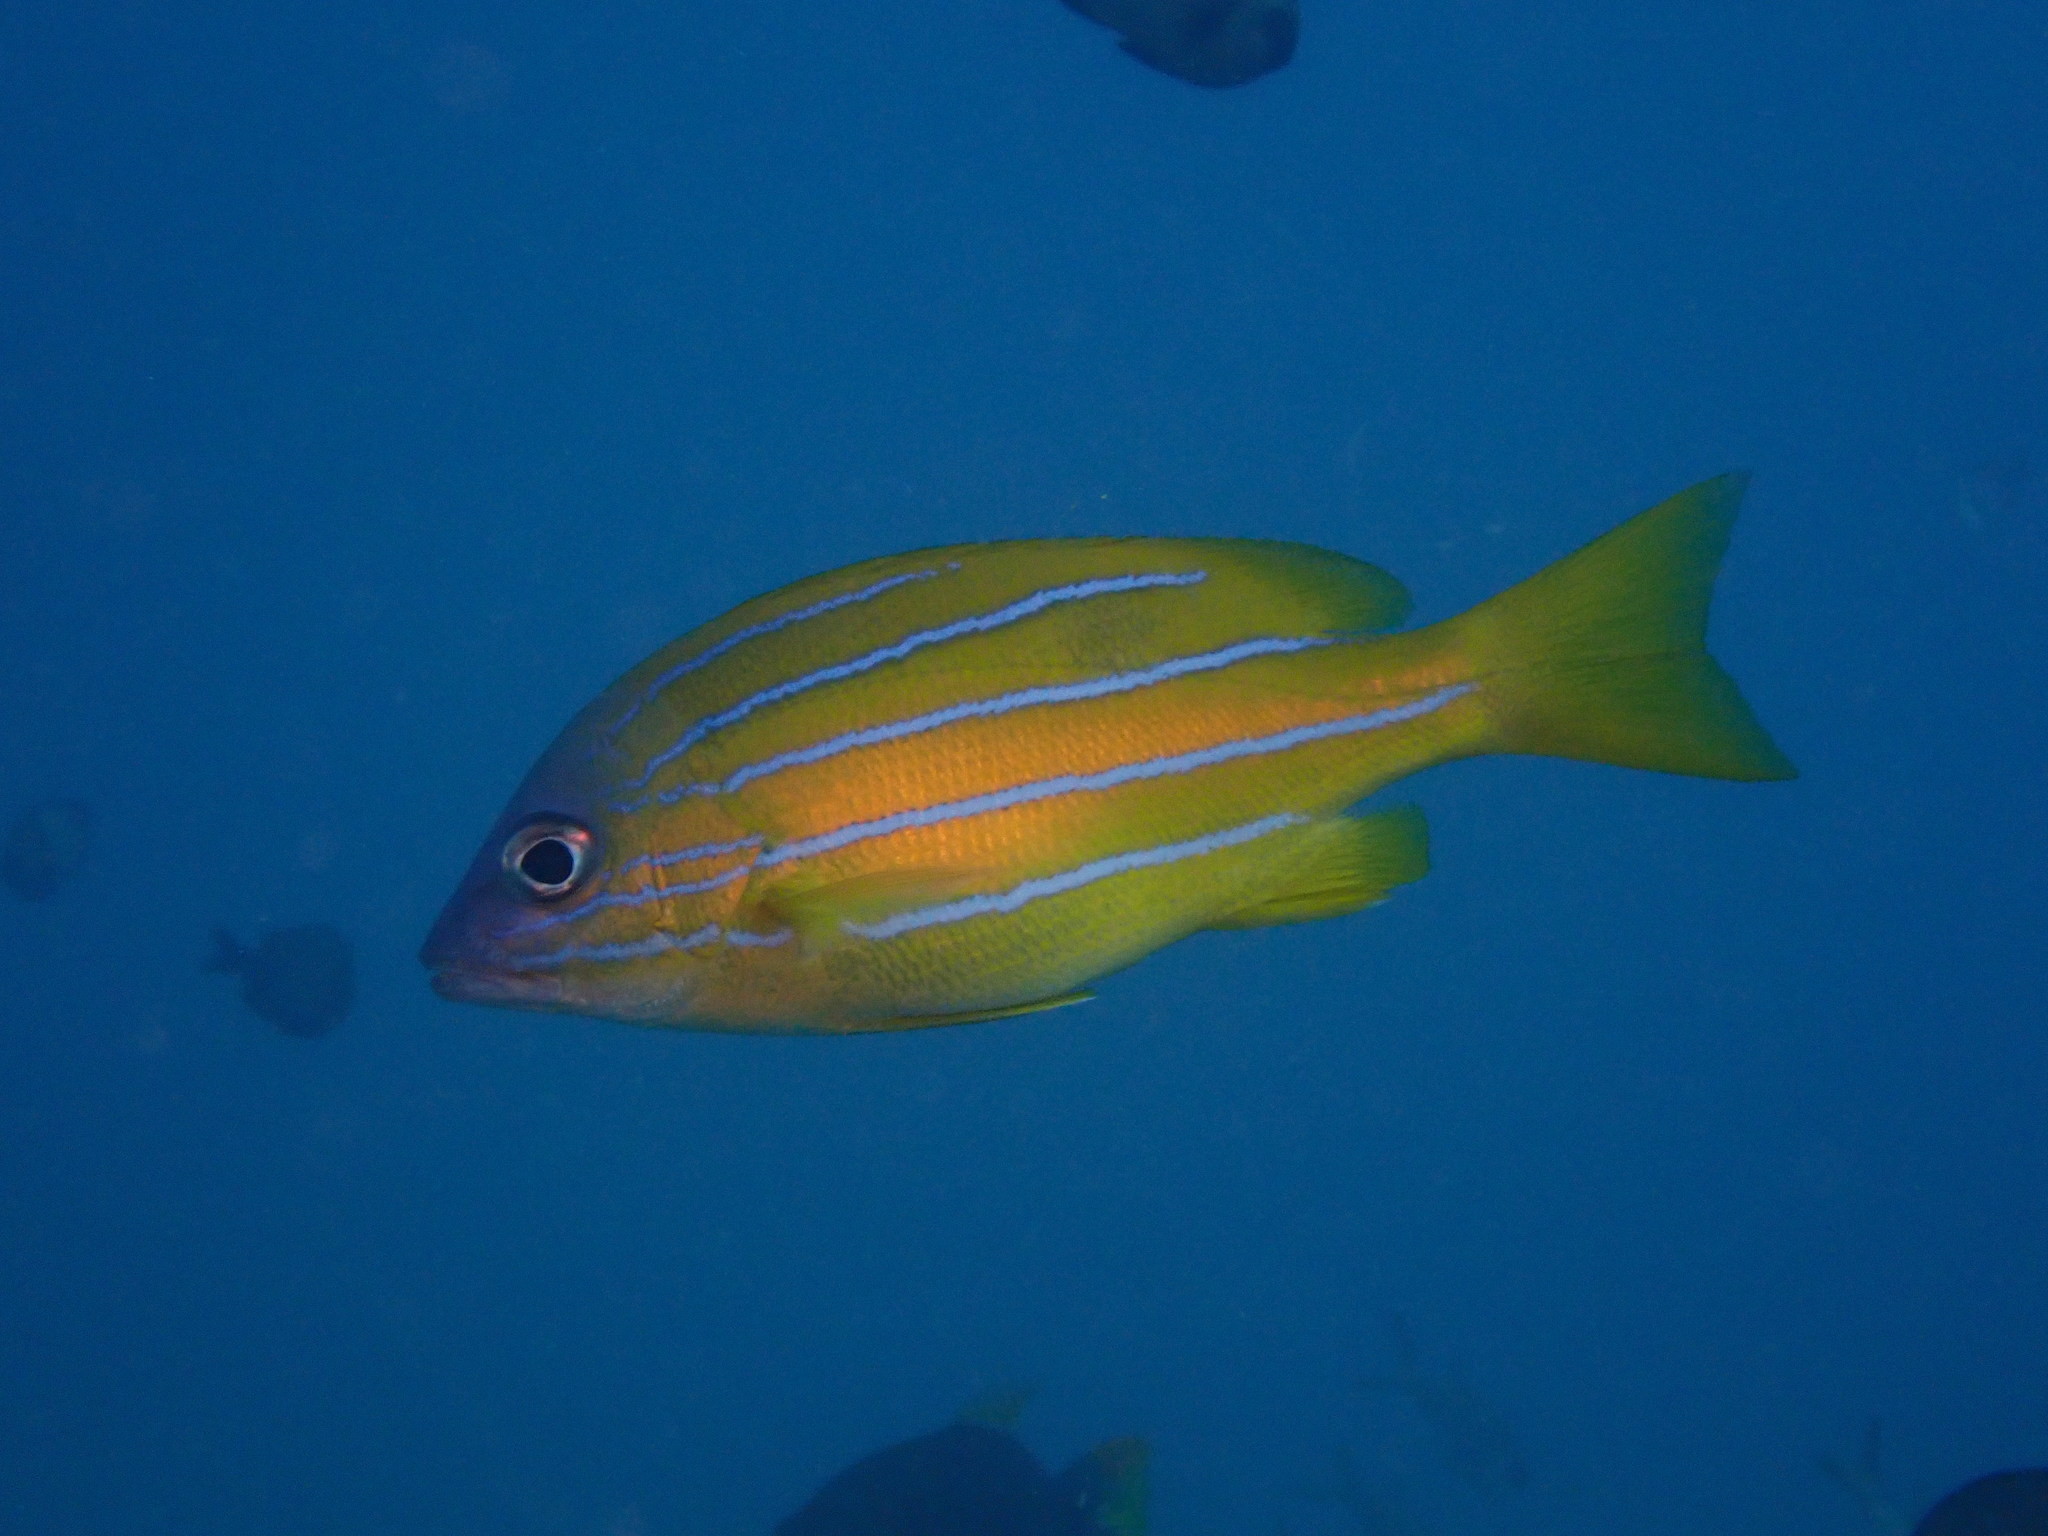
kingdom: Animalia
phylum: Chordata
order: Perciformes
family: Lutjanidae
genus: Lutjanus
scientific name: Lutjanus quinquelineatus
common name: Five-lined snapper
